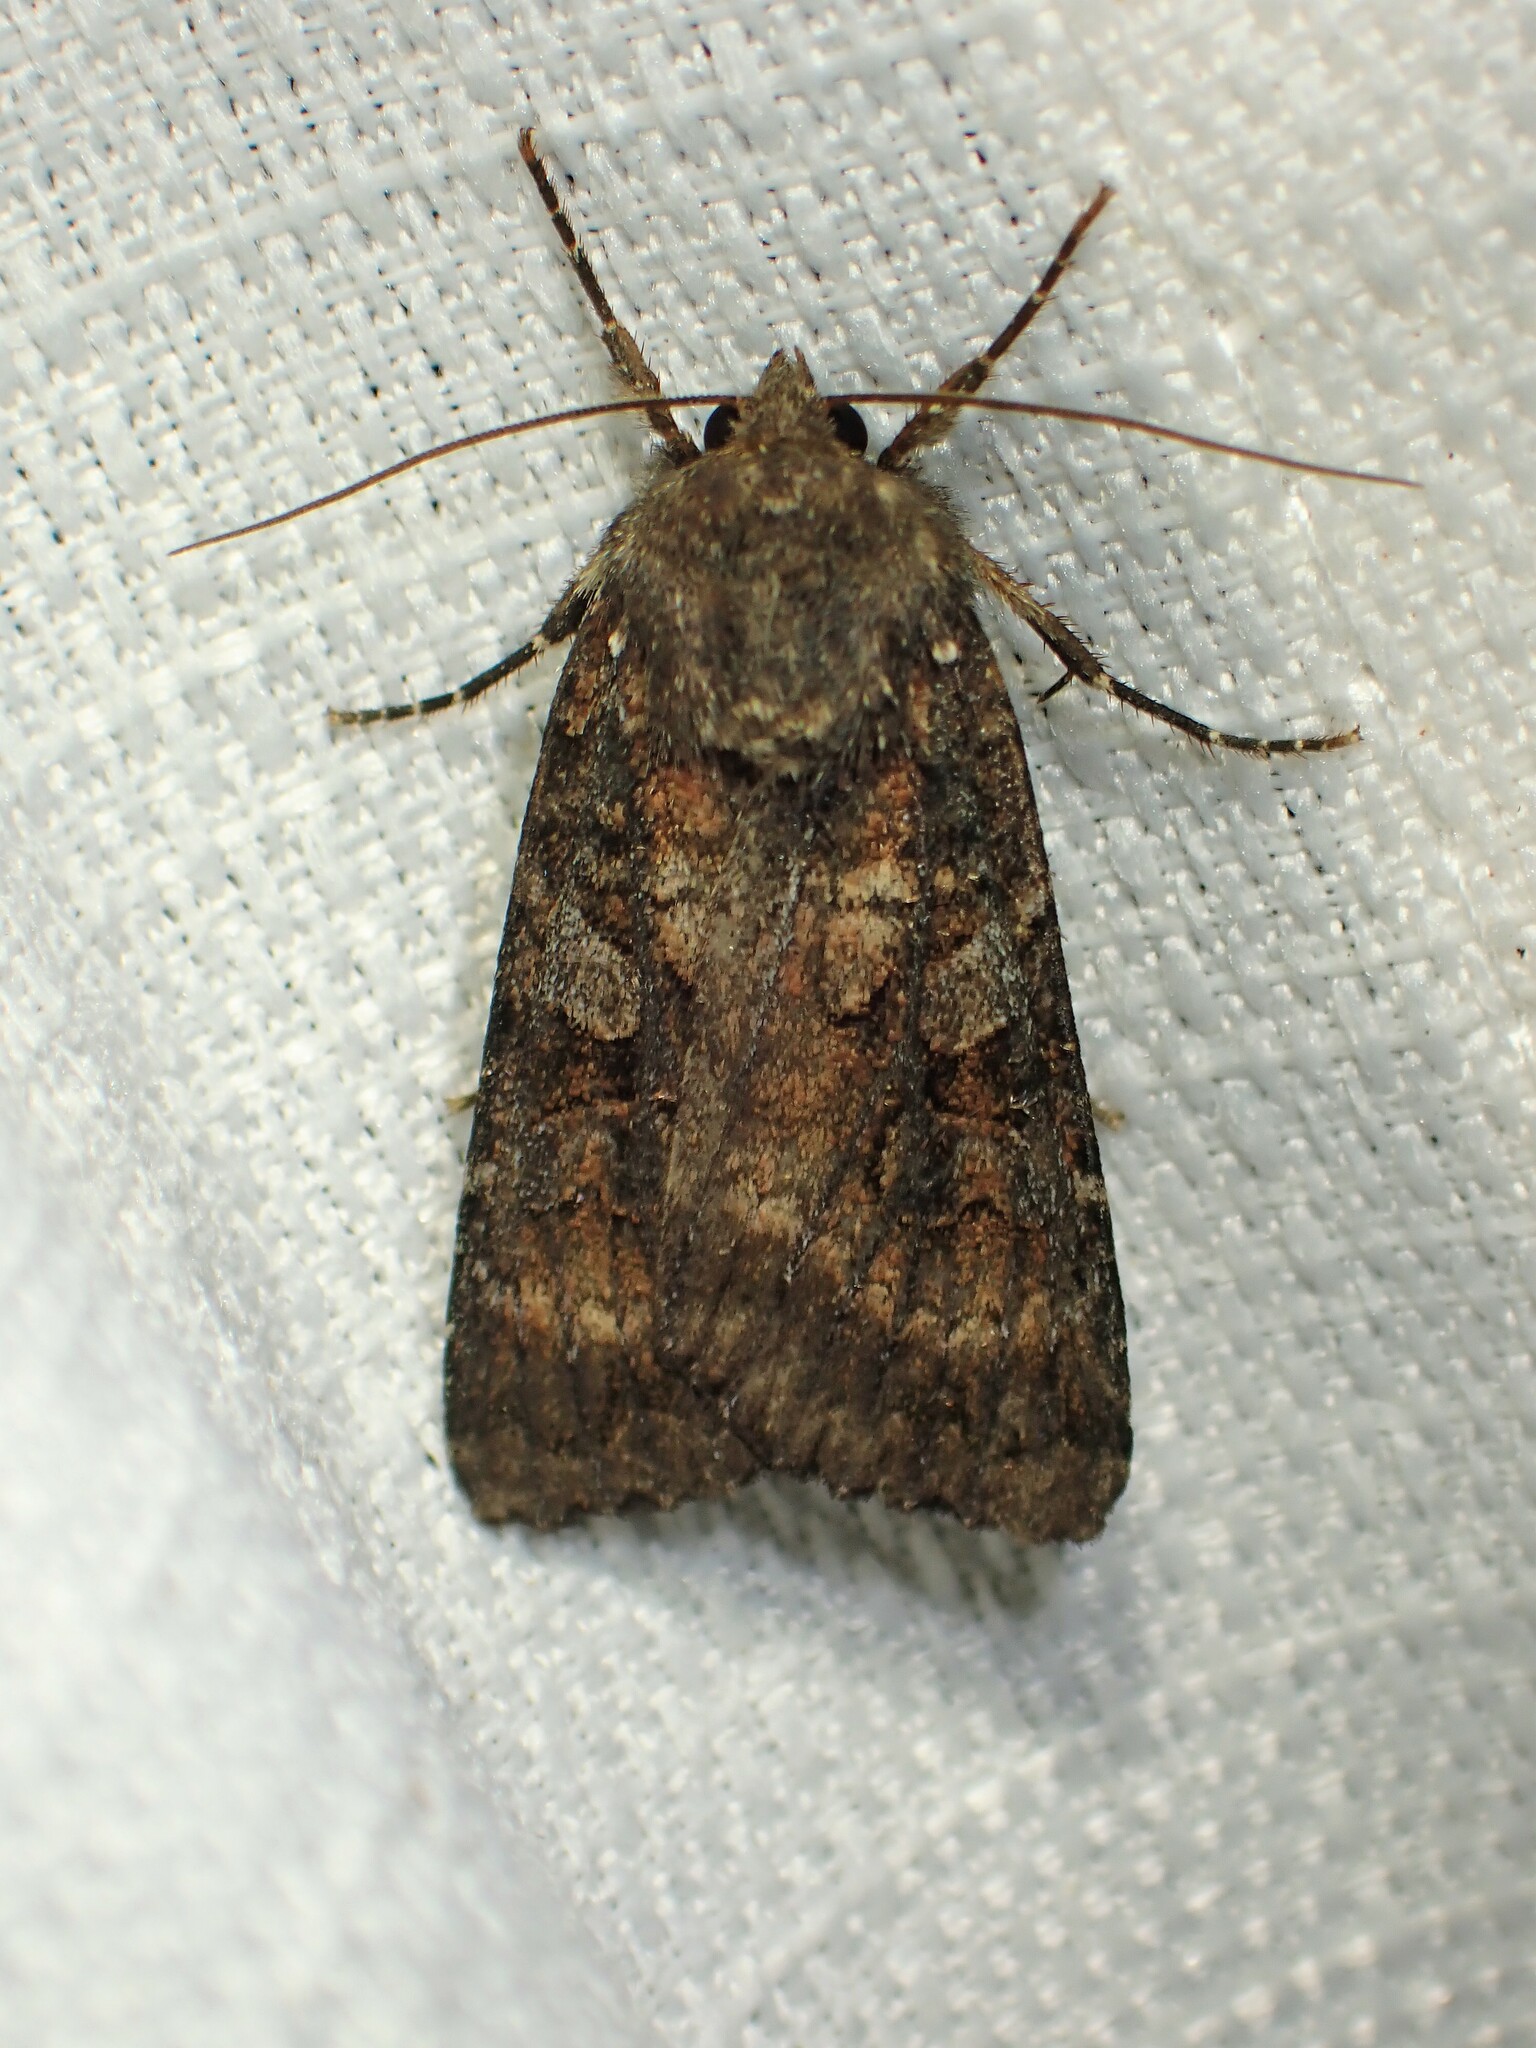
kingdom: Animalia
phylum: Arthropoda
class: Insecta
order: Lepidoptera
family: Noctuidae
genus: Eurois
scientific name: Eurois astricta
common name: Great brown dart
